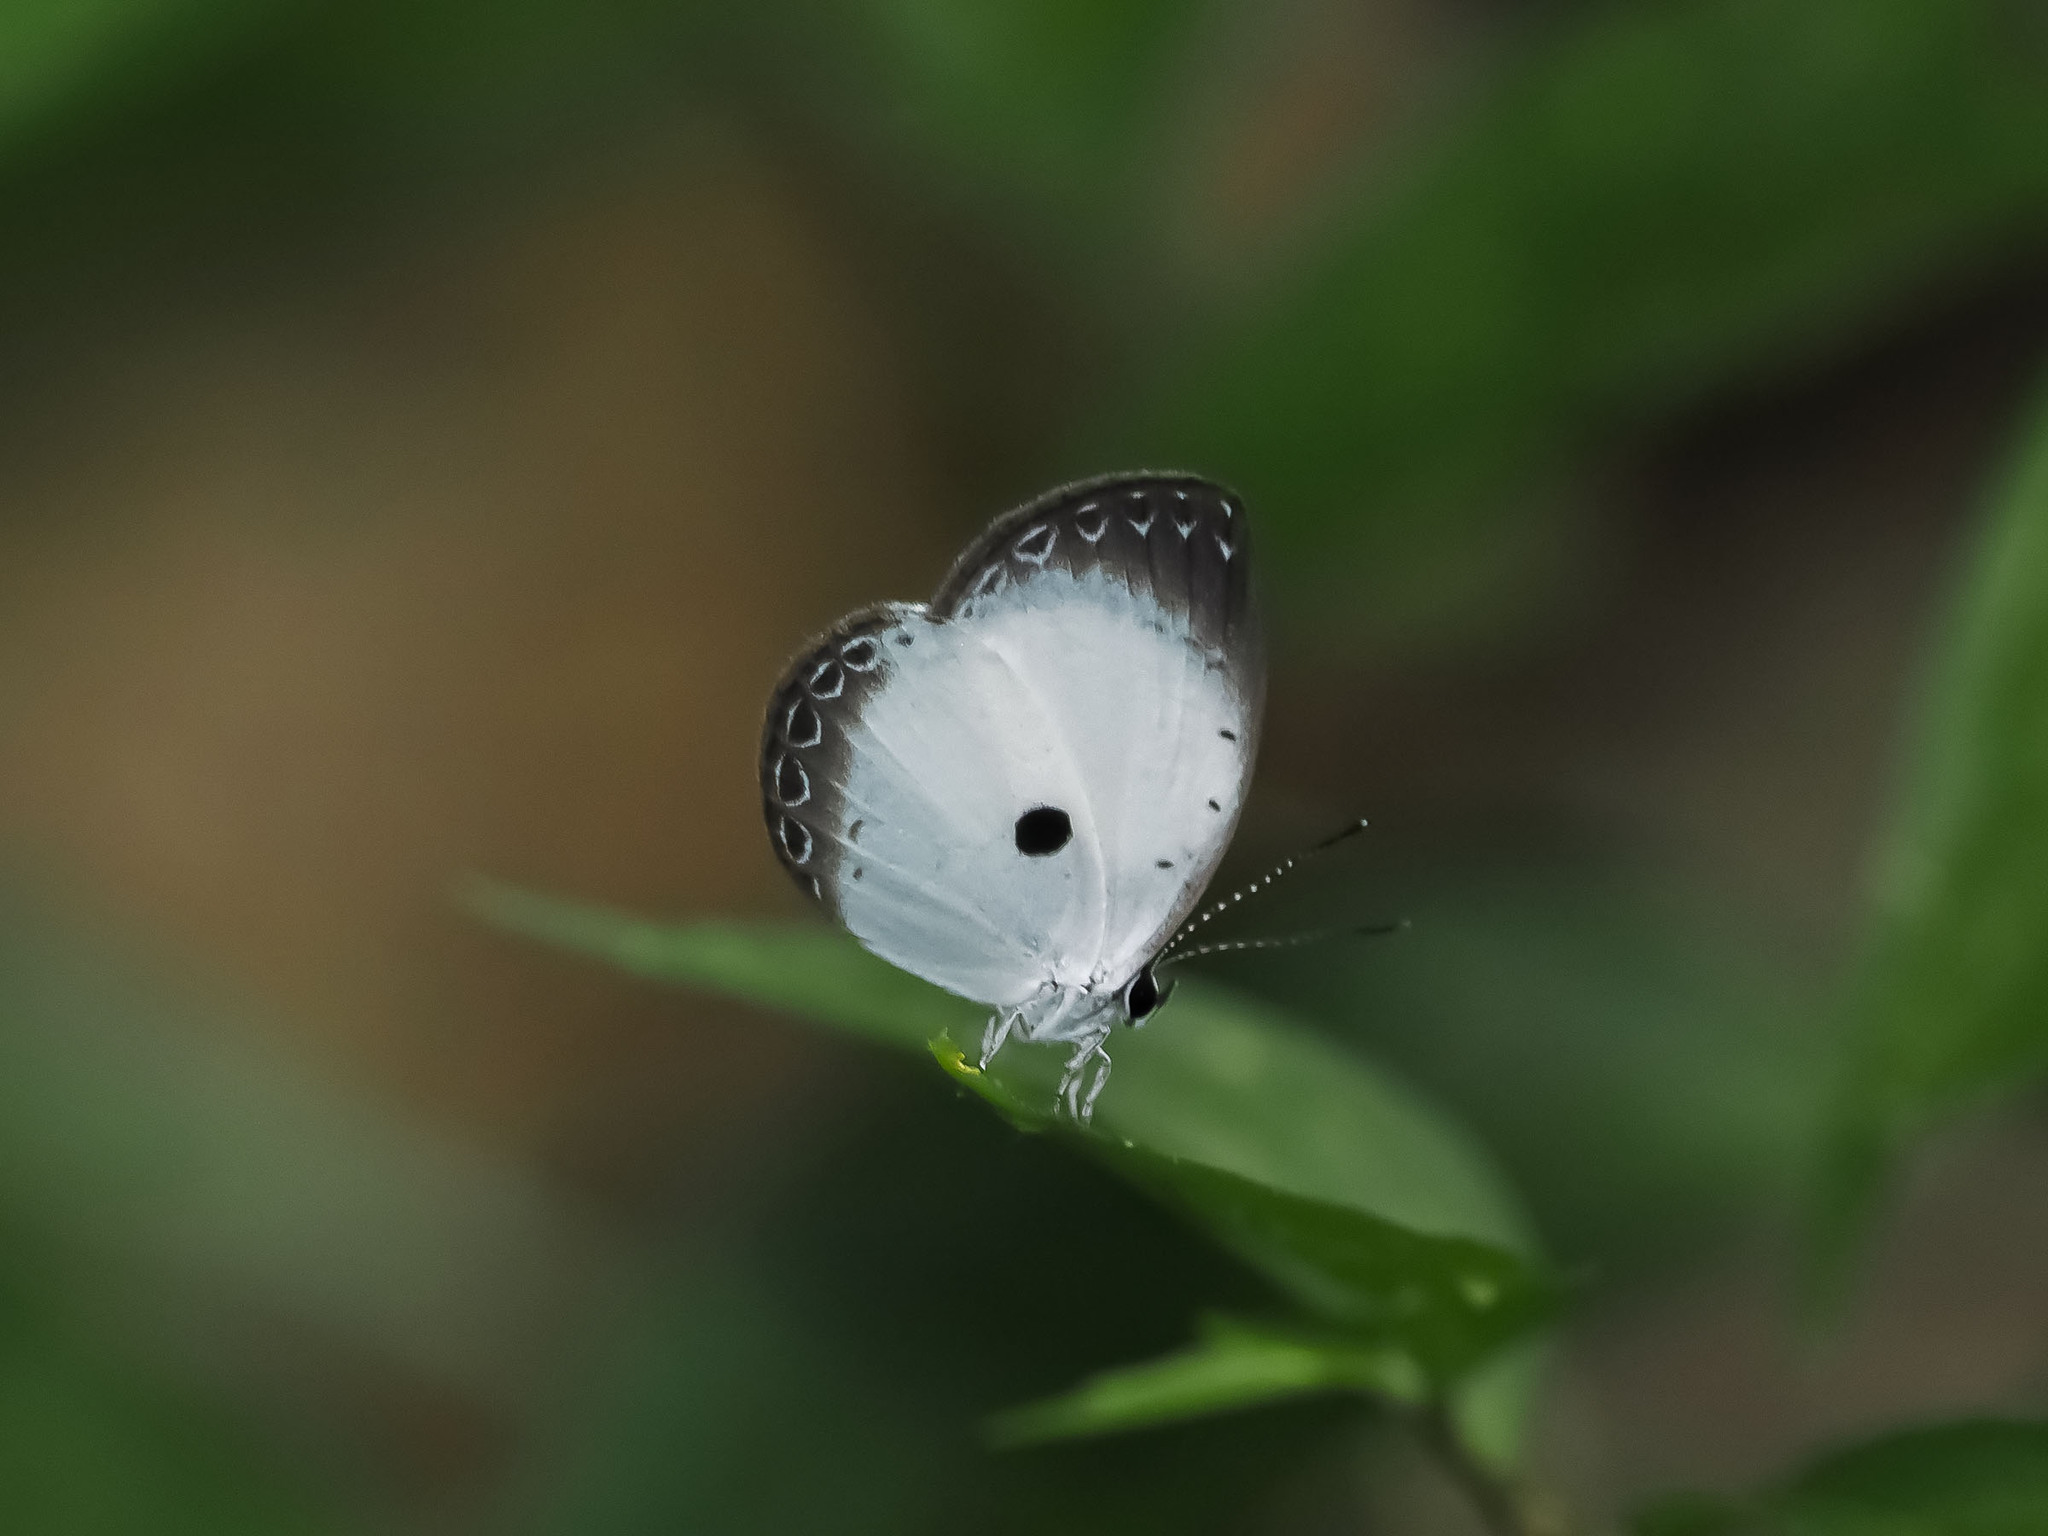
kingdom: Animalia
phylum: Arthropoda
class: Insecta
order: Lepidoptera
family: Lycaenidae
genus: Pithecops
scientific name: Pithecops dionisius
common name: Pied blue
